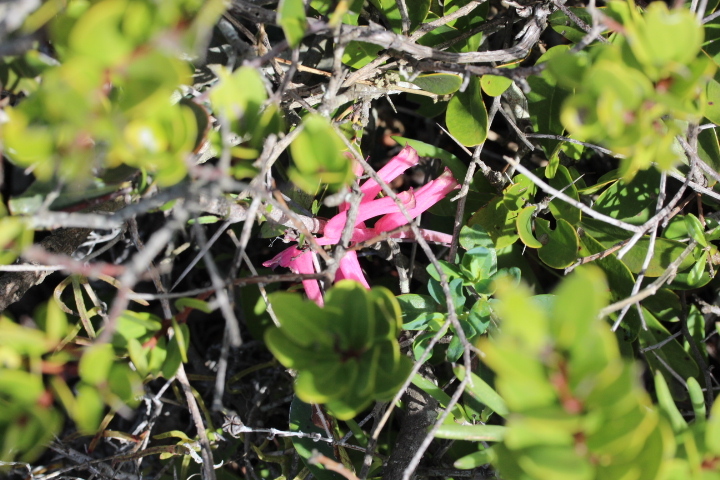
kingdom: Plantae
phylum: Tracheophyta
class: Liliopsida
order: Asparagales
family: Asparagaceae
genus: Lachenalia
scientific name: Lachenalia punctata
